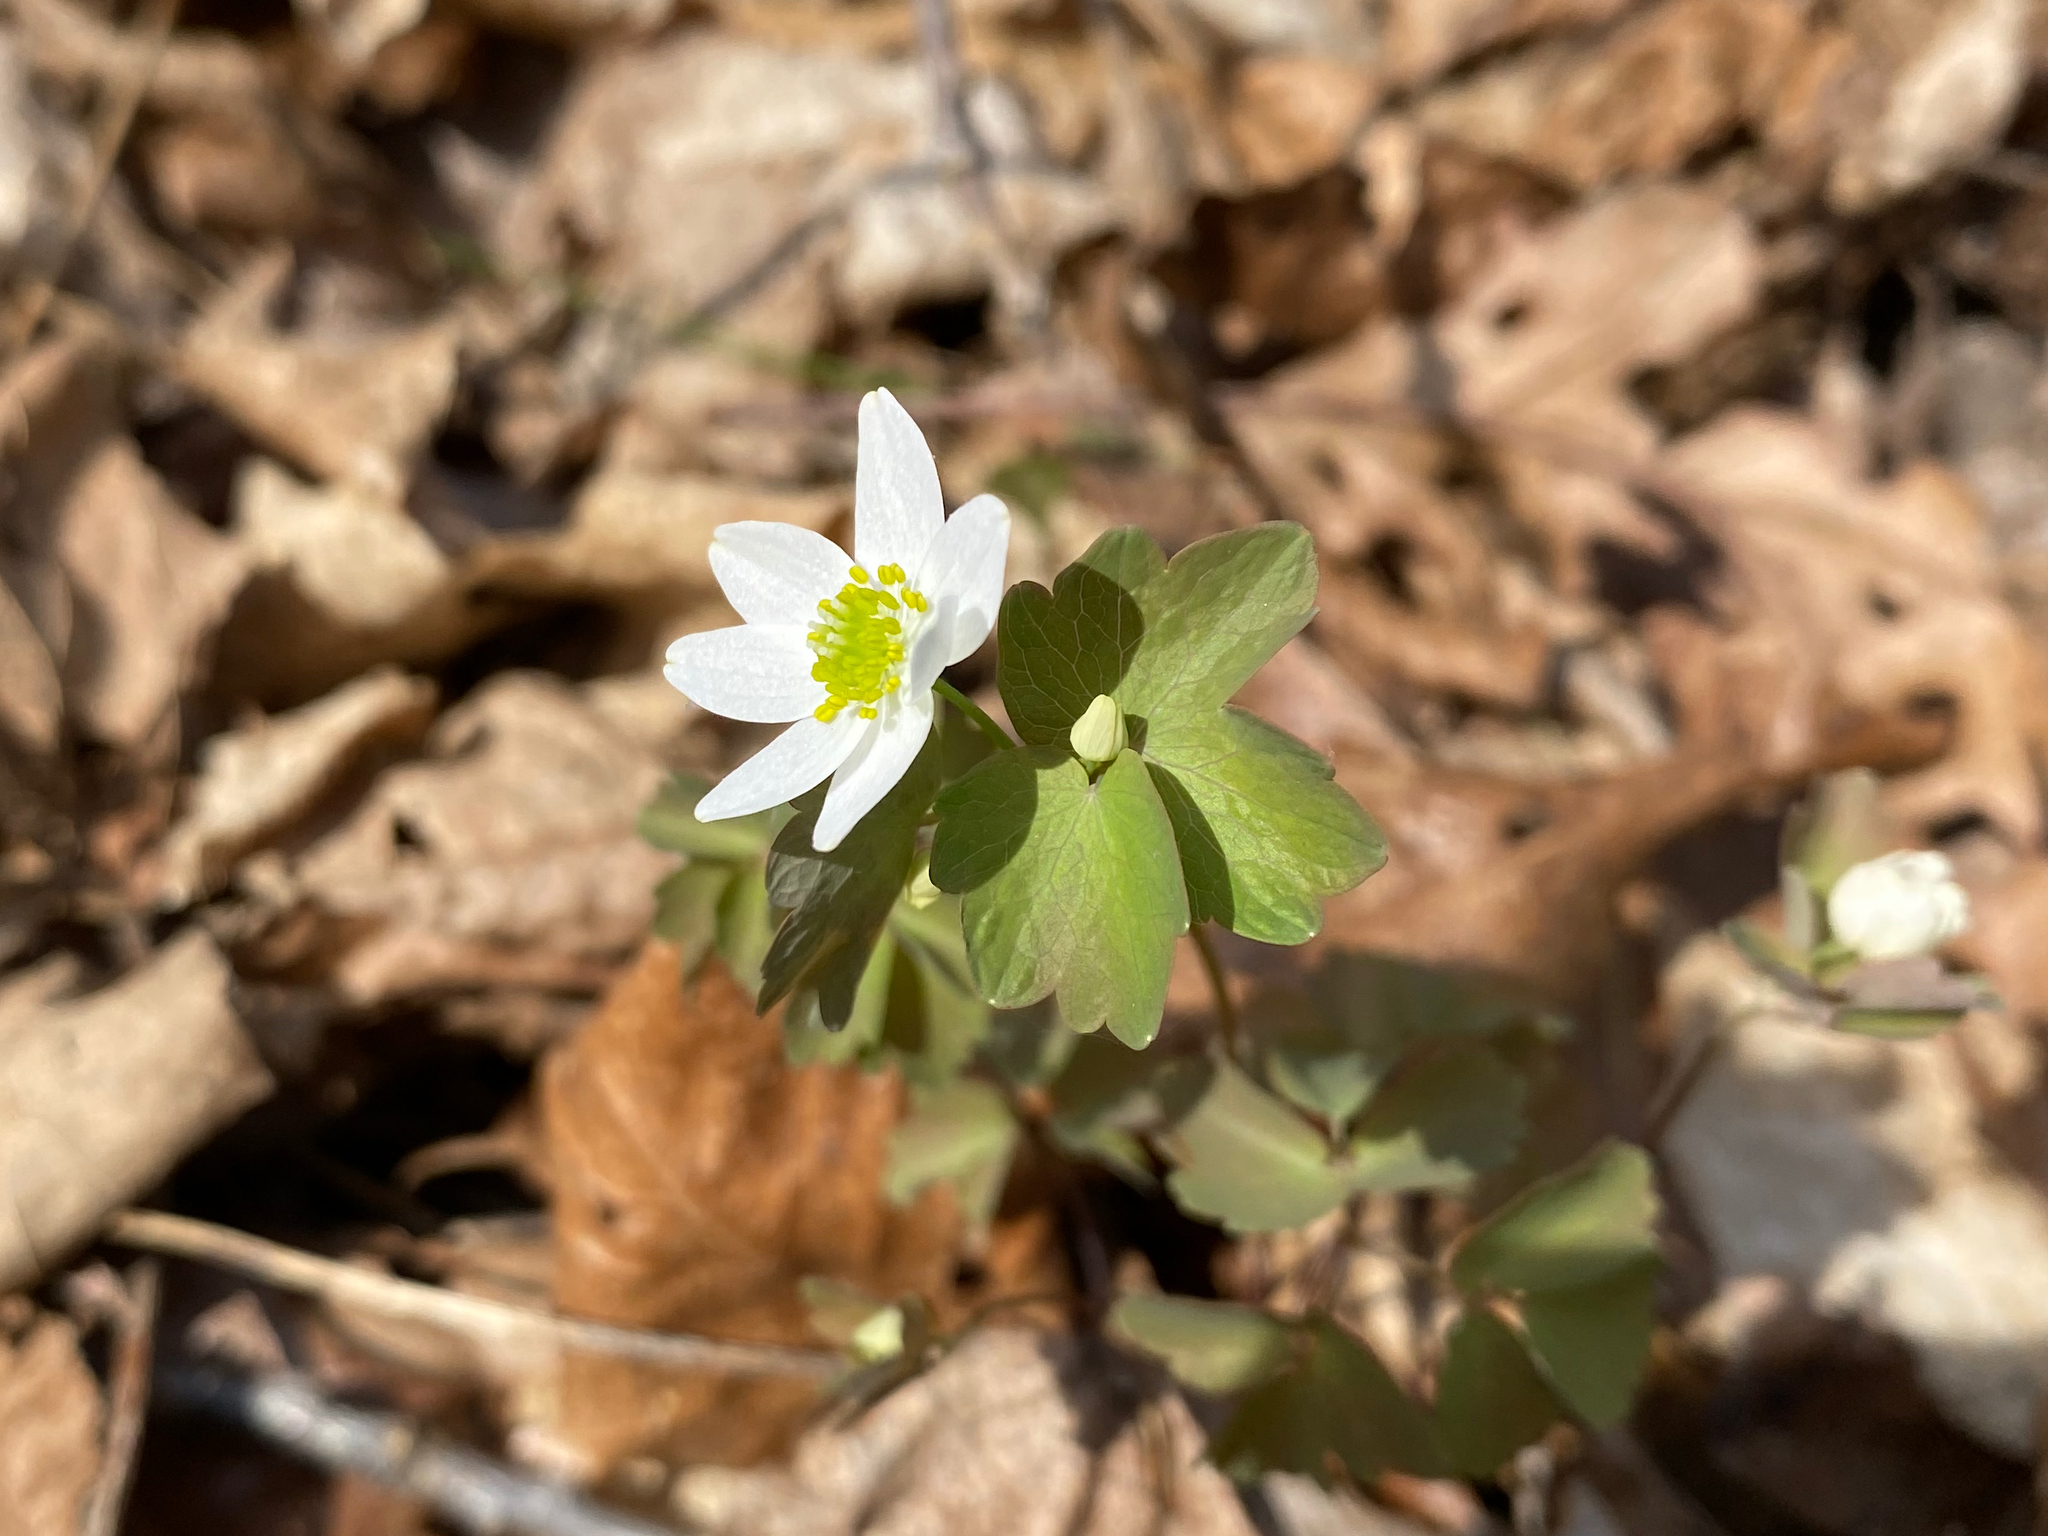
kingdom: Plantae
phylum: Tracheophyta
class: Magnoliopsida
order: Ranunculales
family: Ranunculaceae
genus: Thalictrum
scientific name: Thalictrum thalictroides
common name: Rue-anemone
